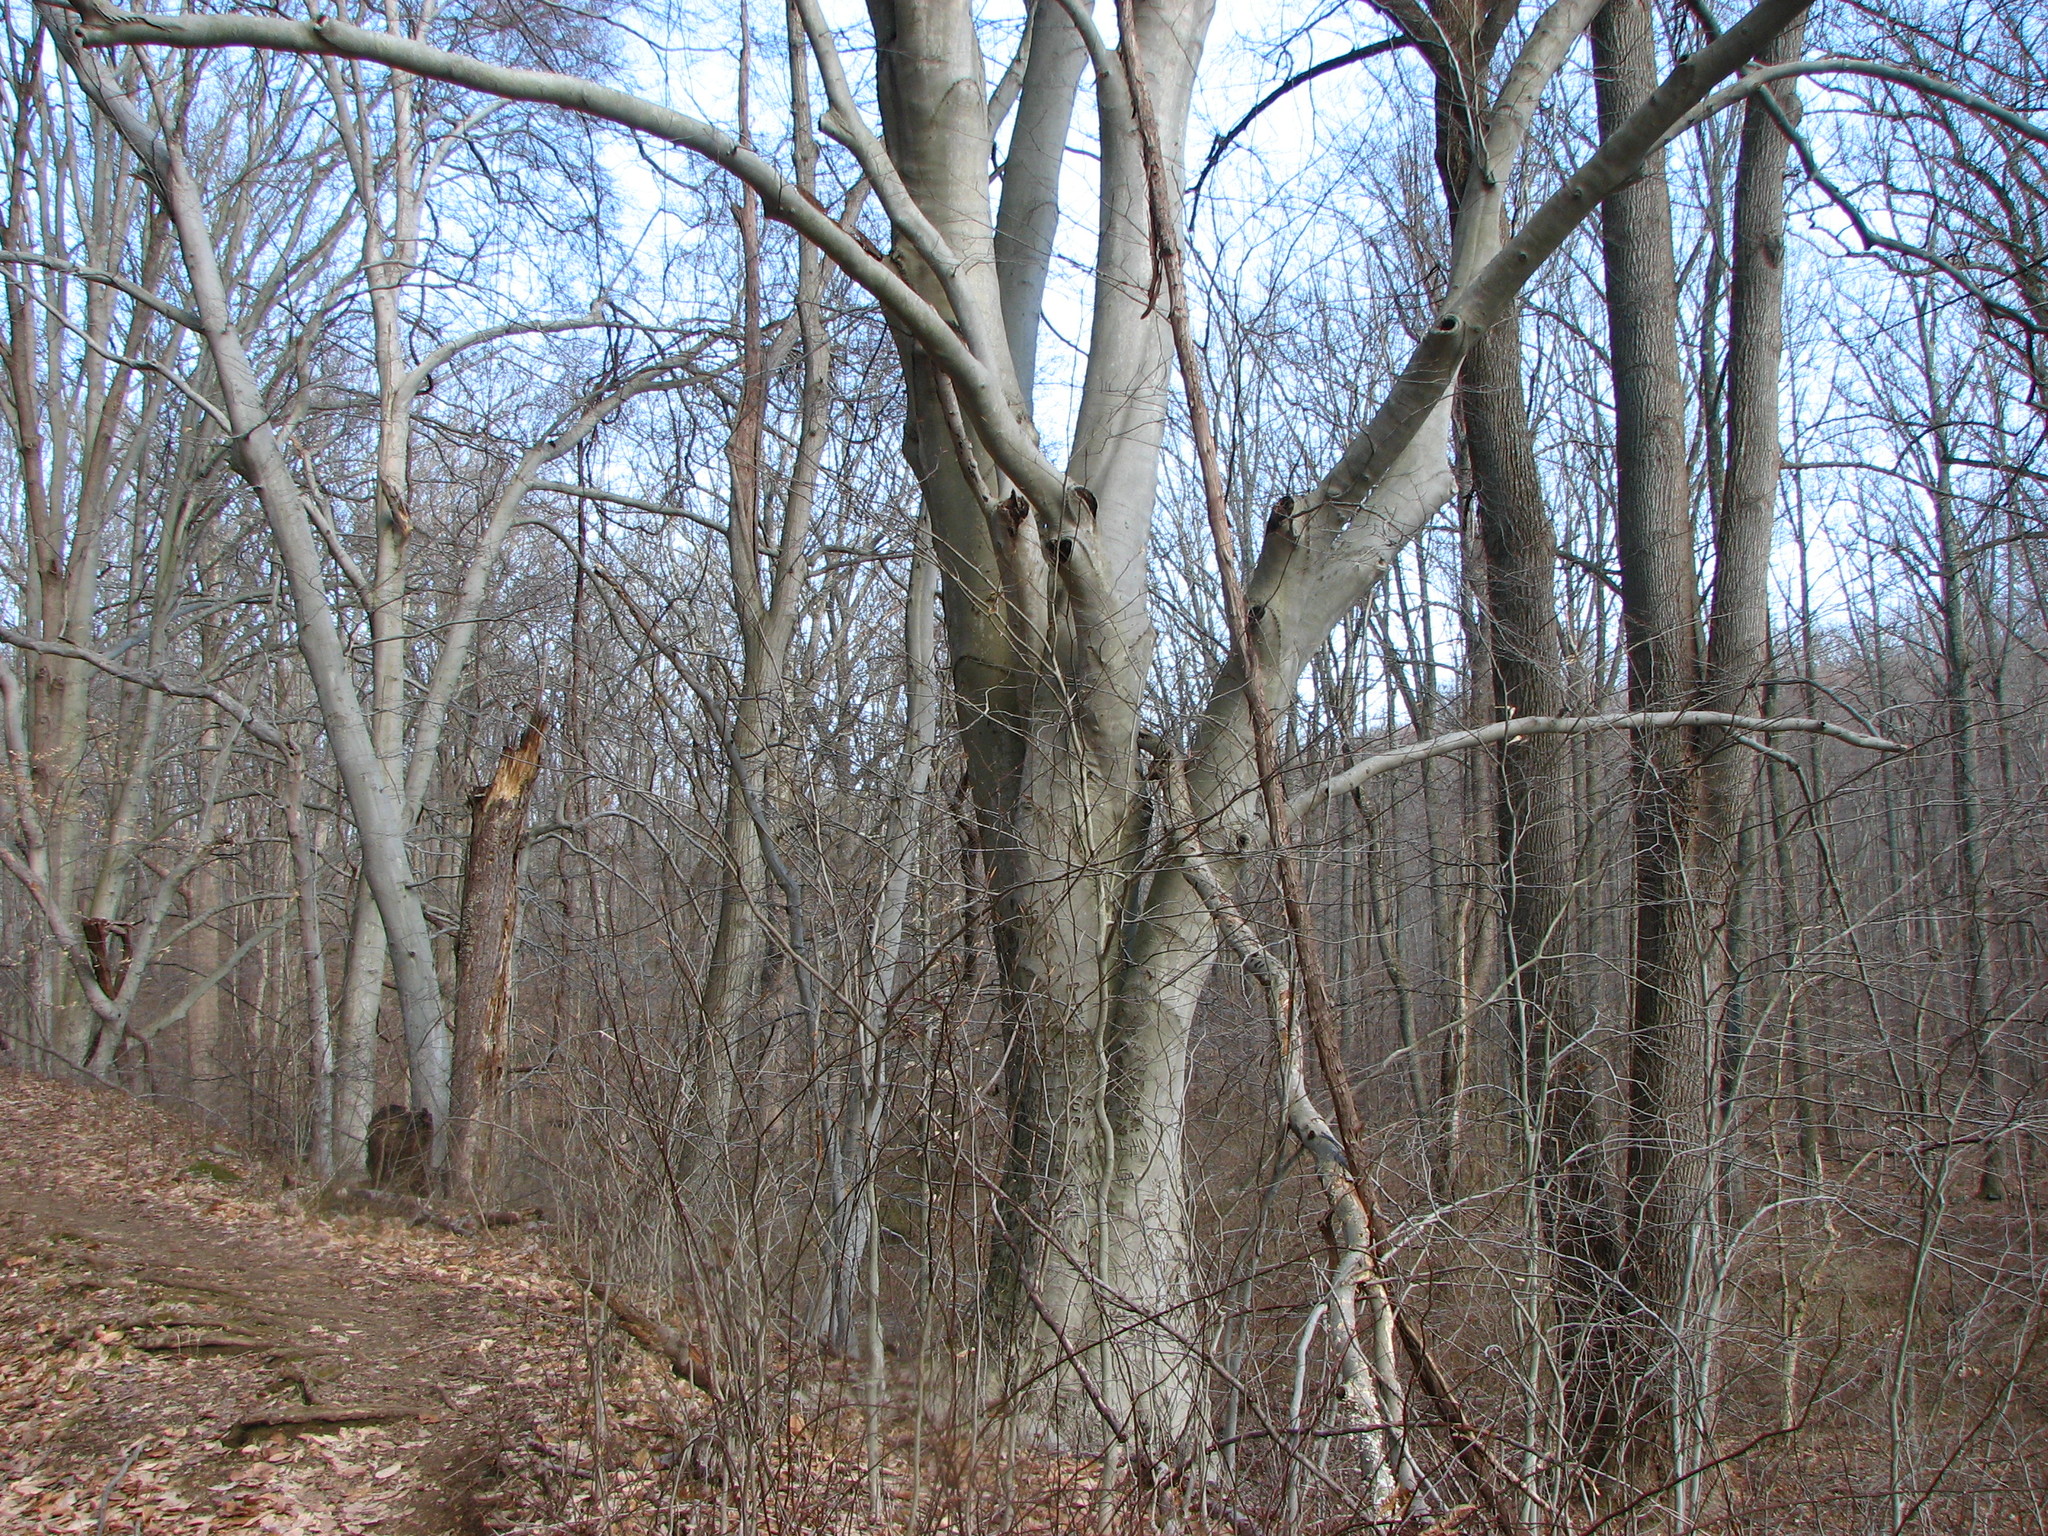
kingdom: Plantae
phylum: Tracheophyta
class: Magnoliopsida
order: Fagales
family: Fagaceae
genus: Fagus
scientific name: Fagus grandifolia
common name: American beech
